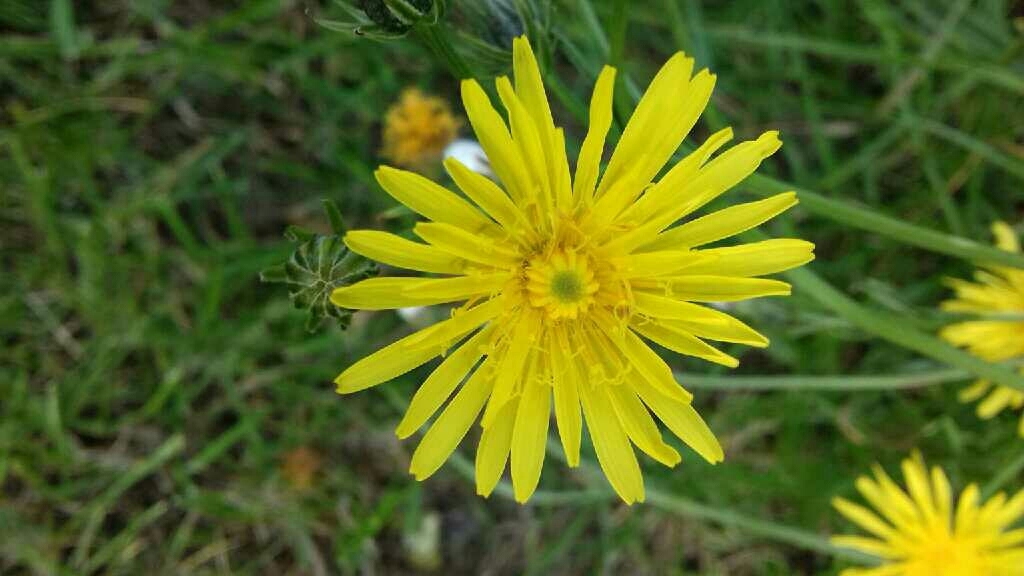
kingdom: Plantae
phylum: Tracheophyta
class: Magnoliopsida
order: Asterales
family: Asteraceae
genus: Crepis
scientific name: Crepis biennis
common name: Rough hawk's-beard
